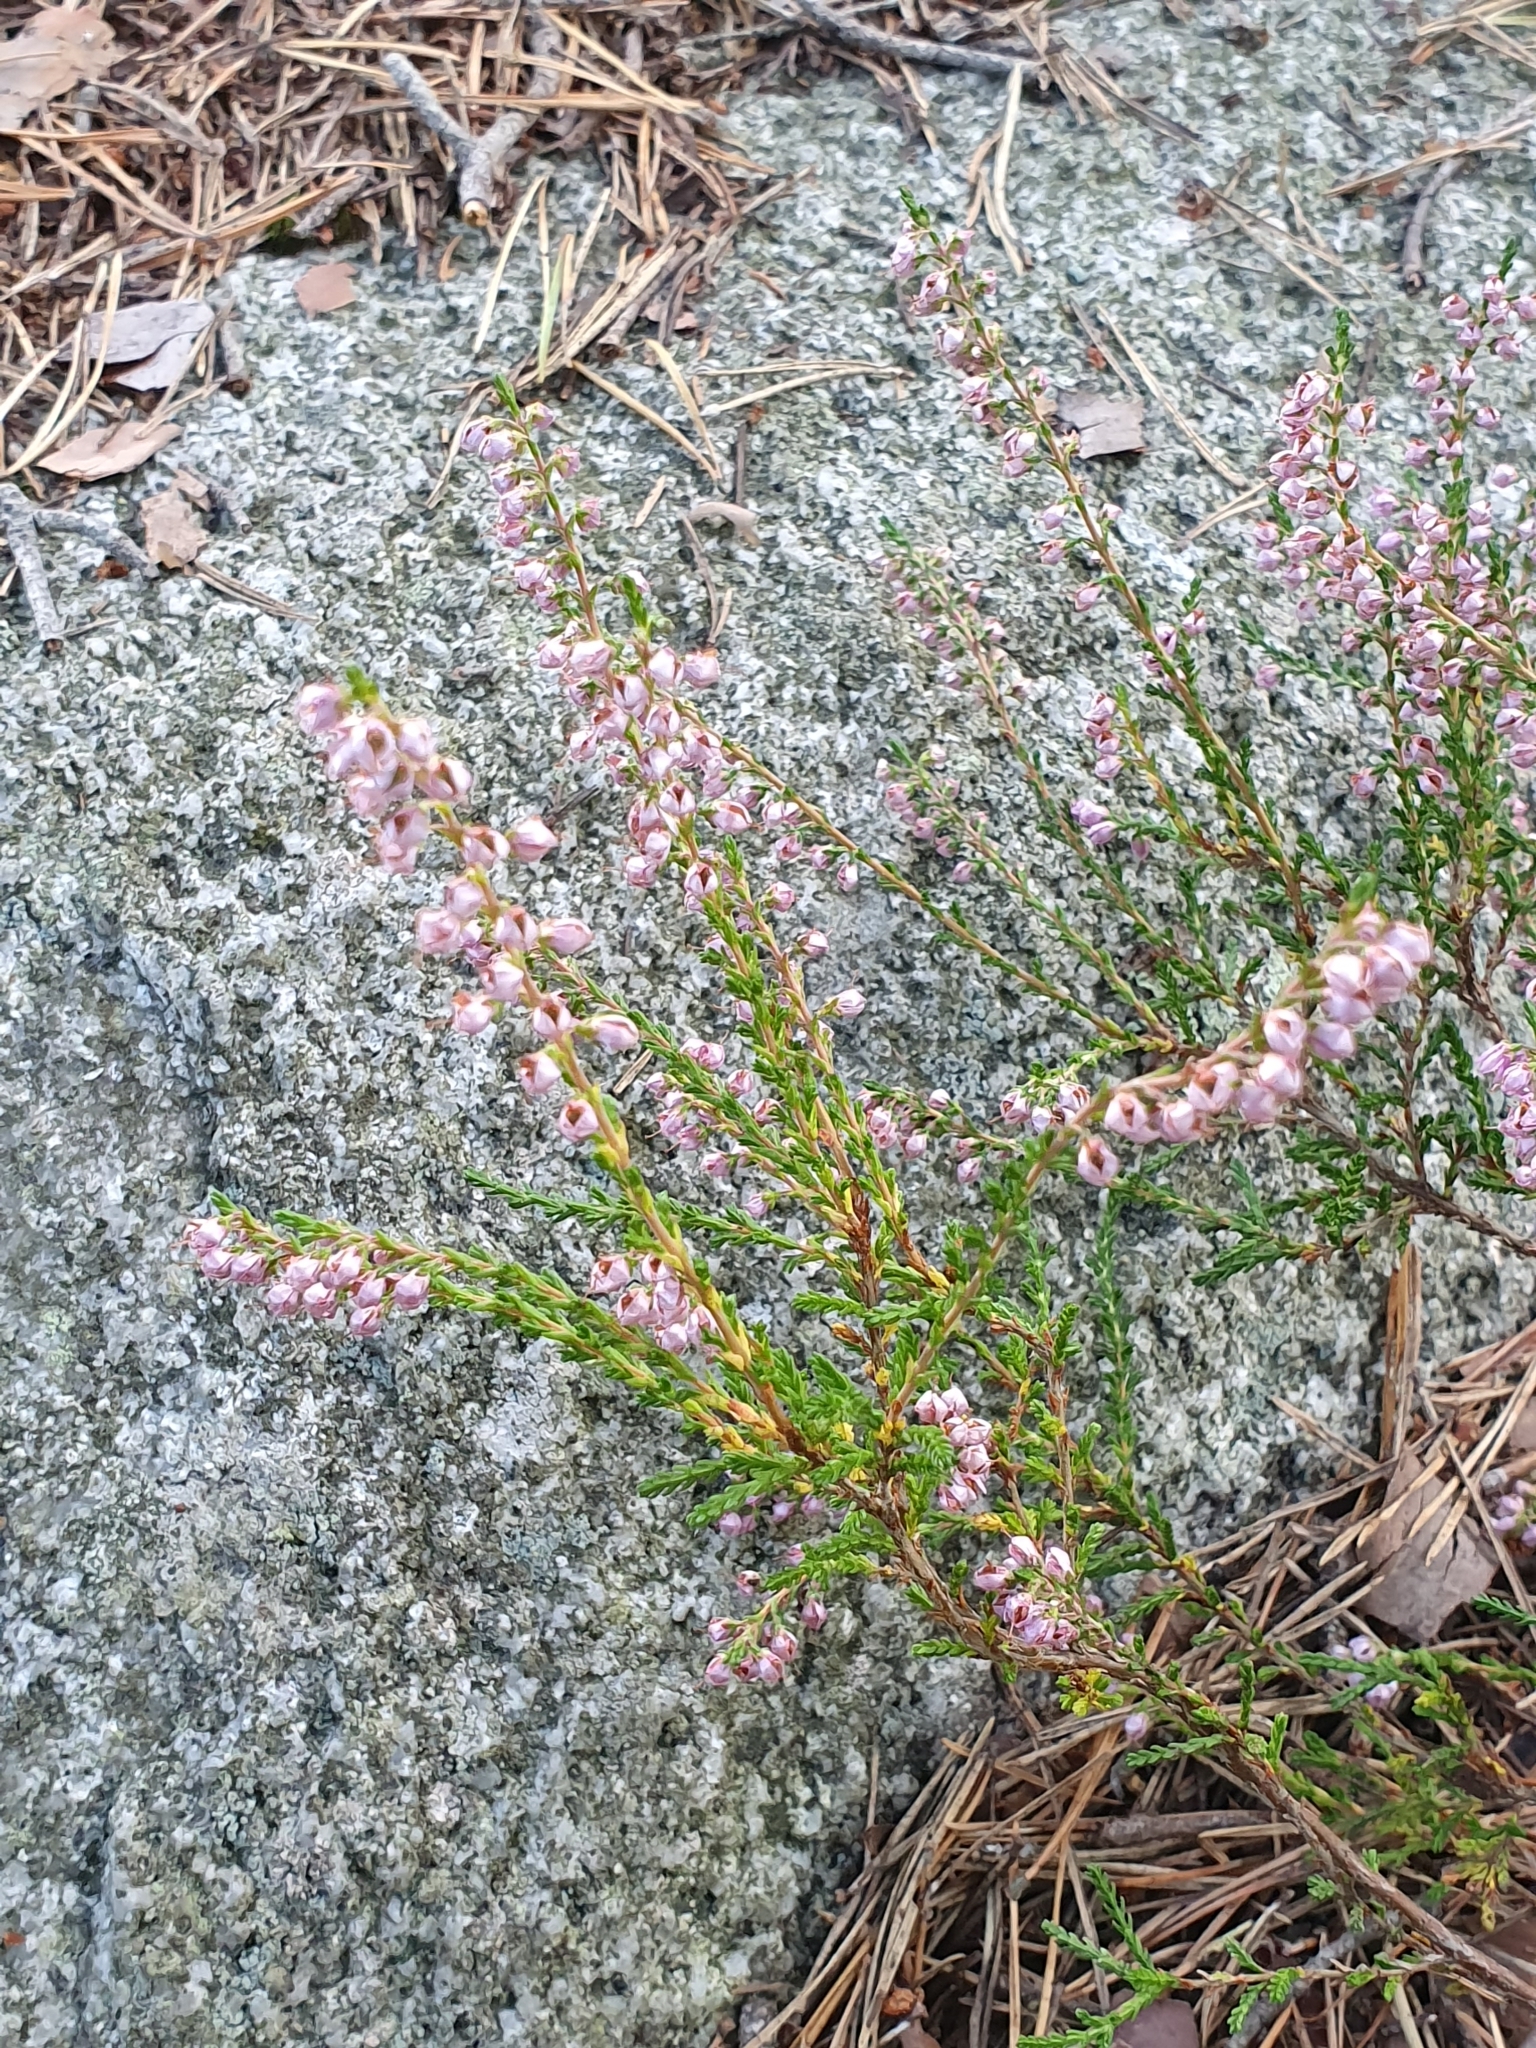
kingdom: Plantae
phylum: Tracheophyta
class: Magnoliopsida
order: Ericales
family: Ericaceae
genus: Calluna
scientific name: Calluna vulgaris
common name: Heather
